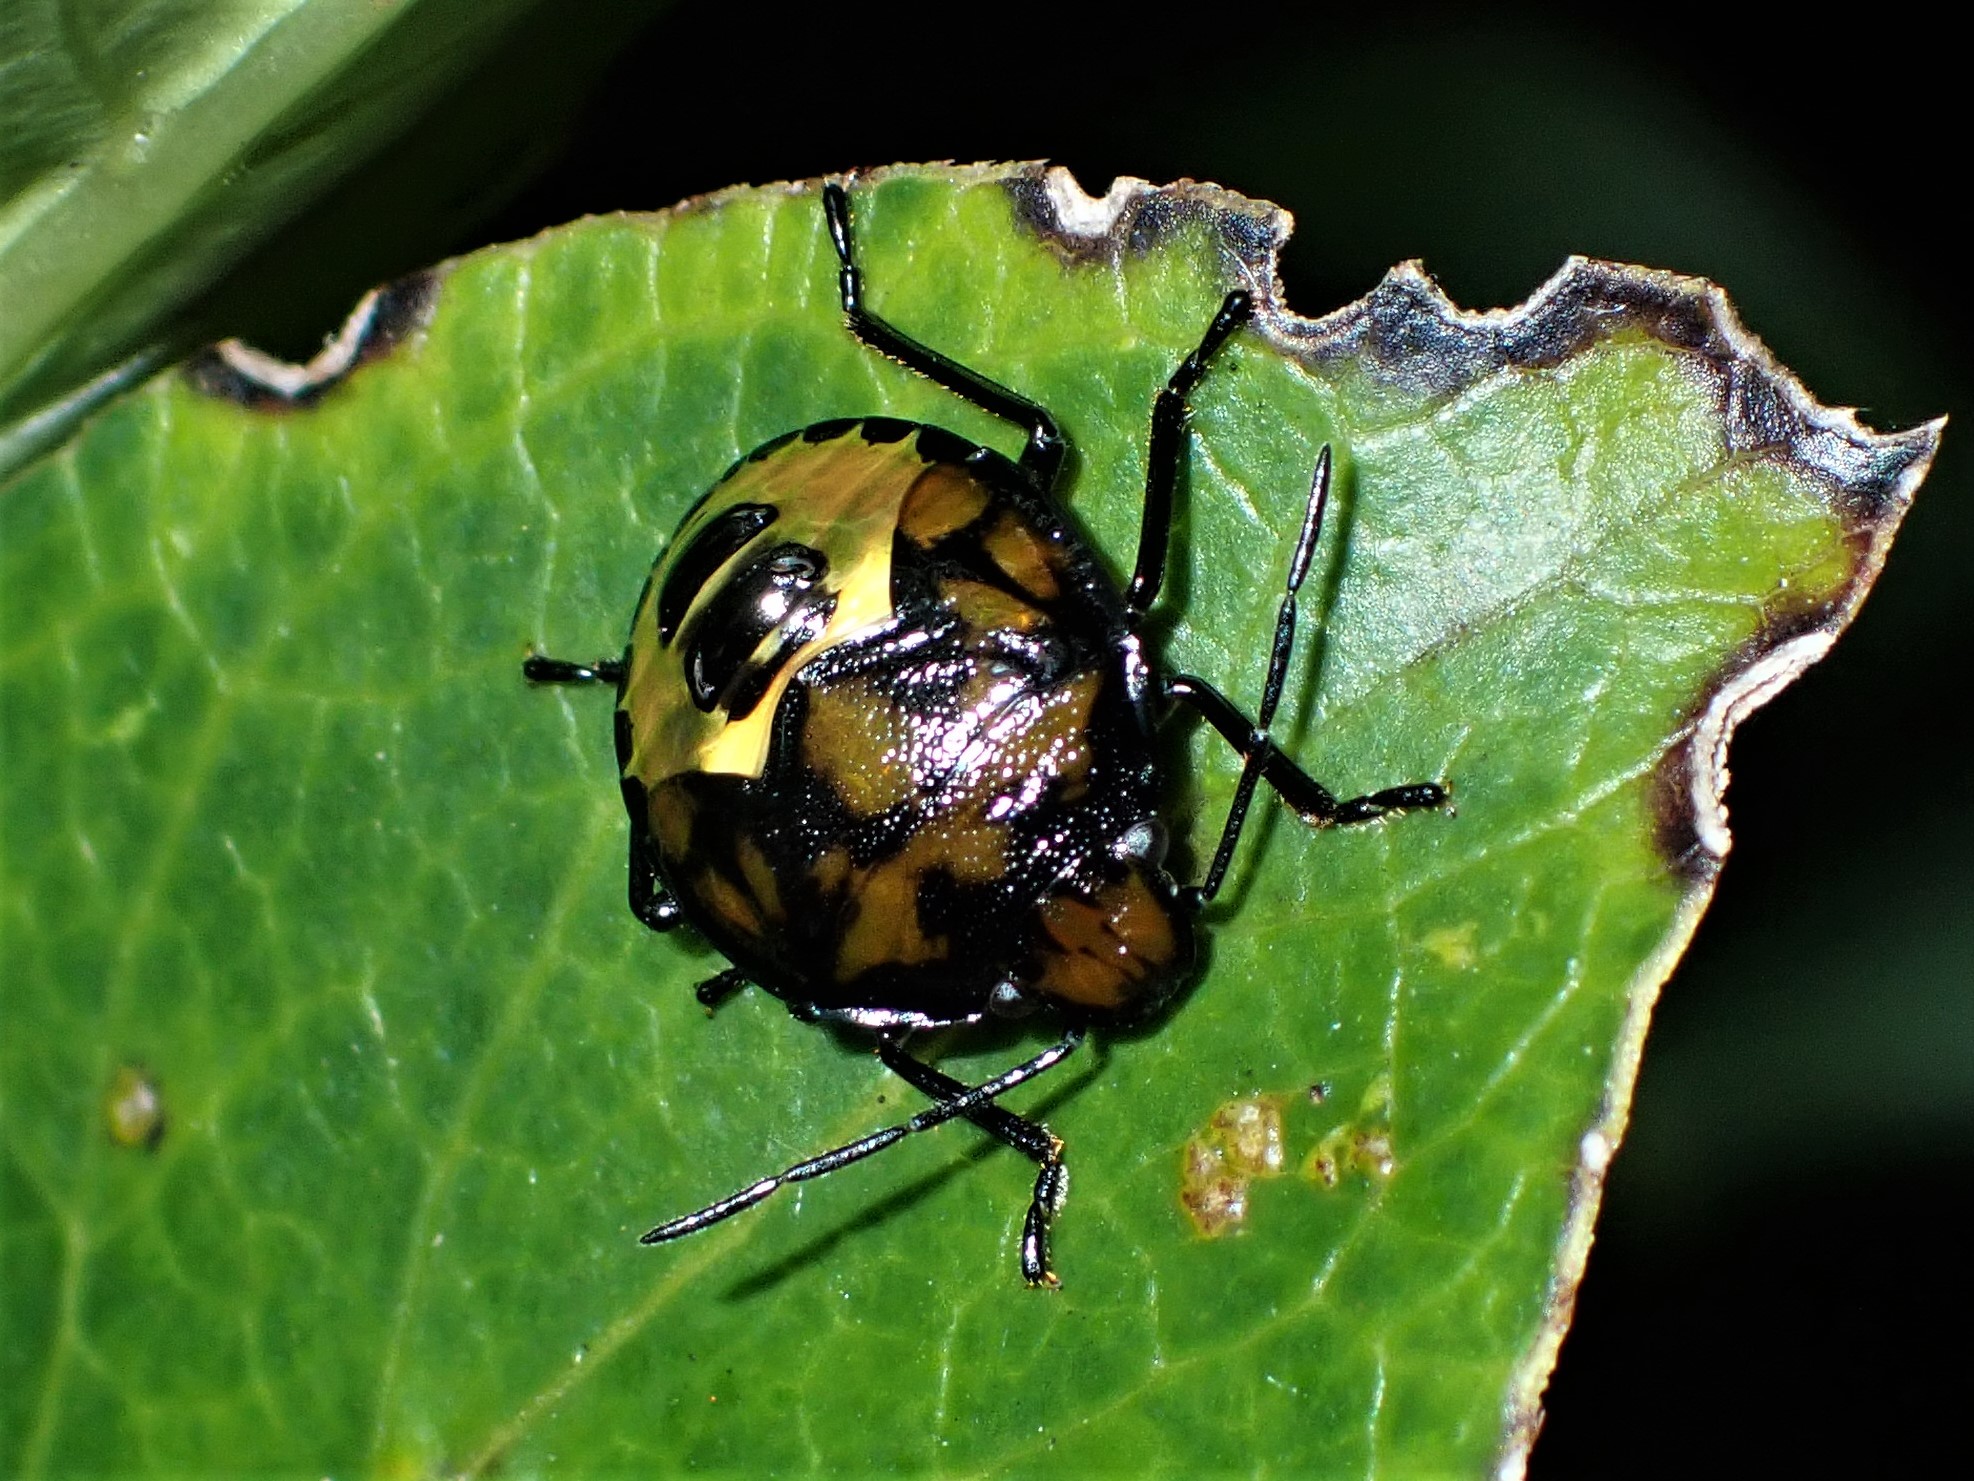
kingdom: Animalia
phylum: Arthropoda
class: Insecta
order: Hemiptera
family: Pentatomidae
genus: Glaucias
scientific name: Glaucias amyota
